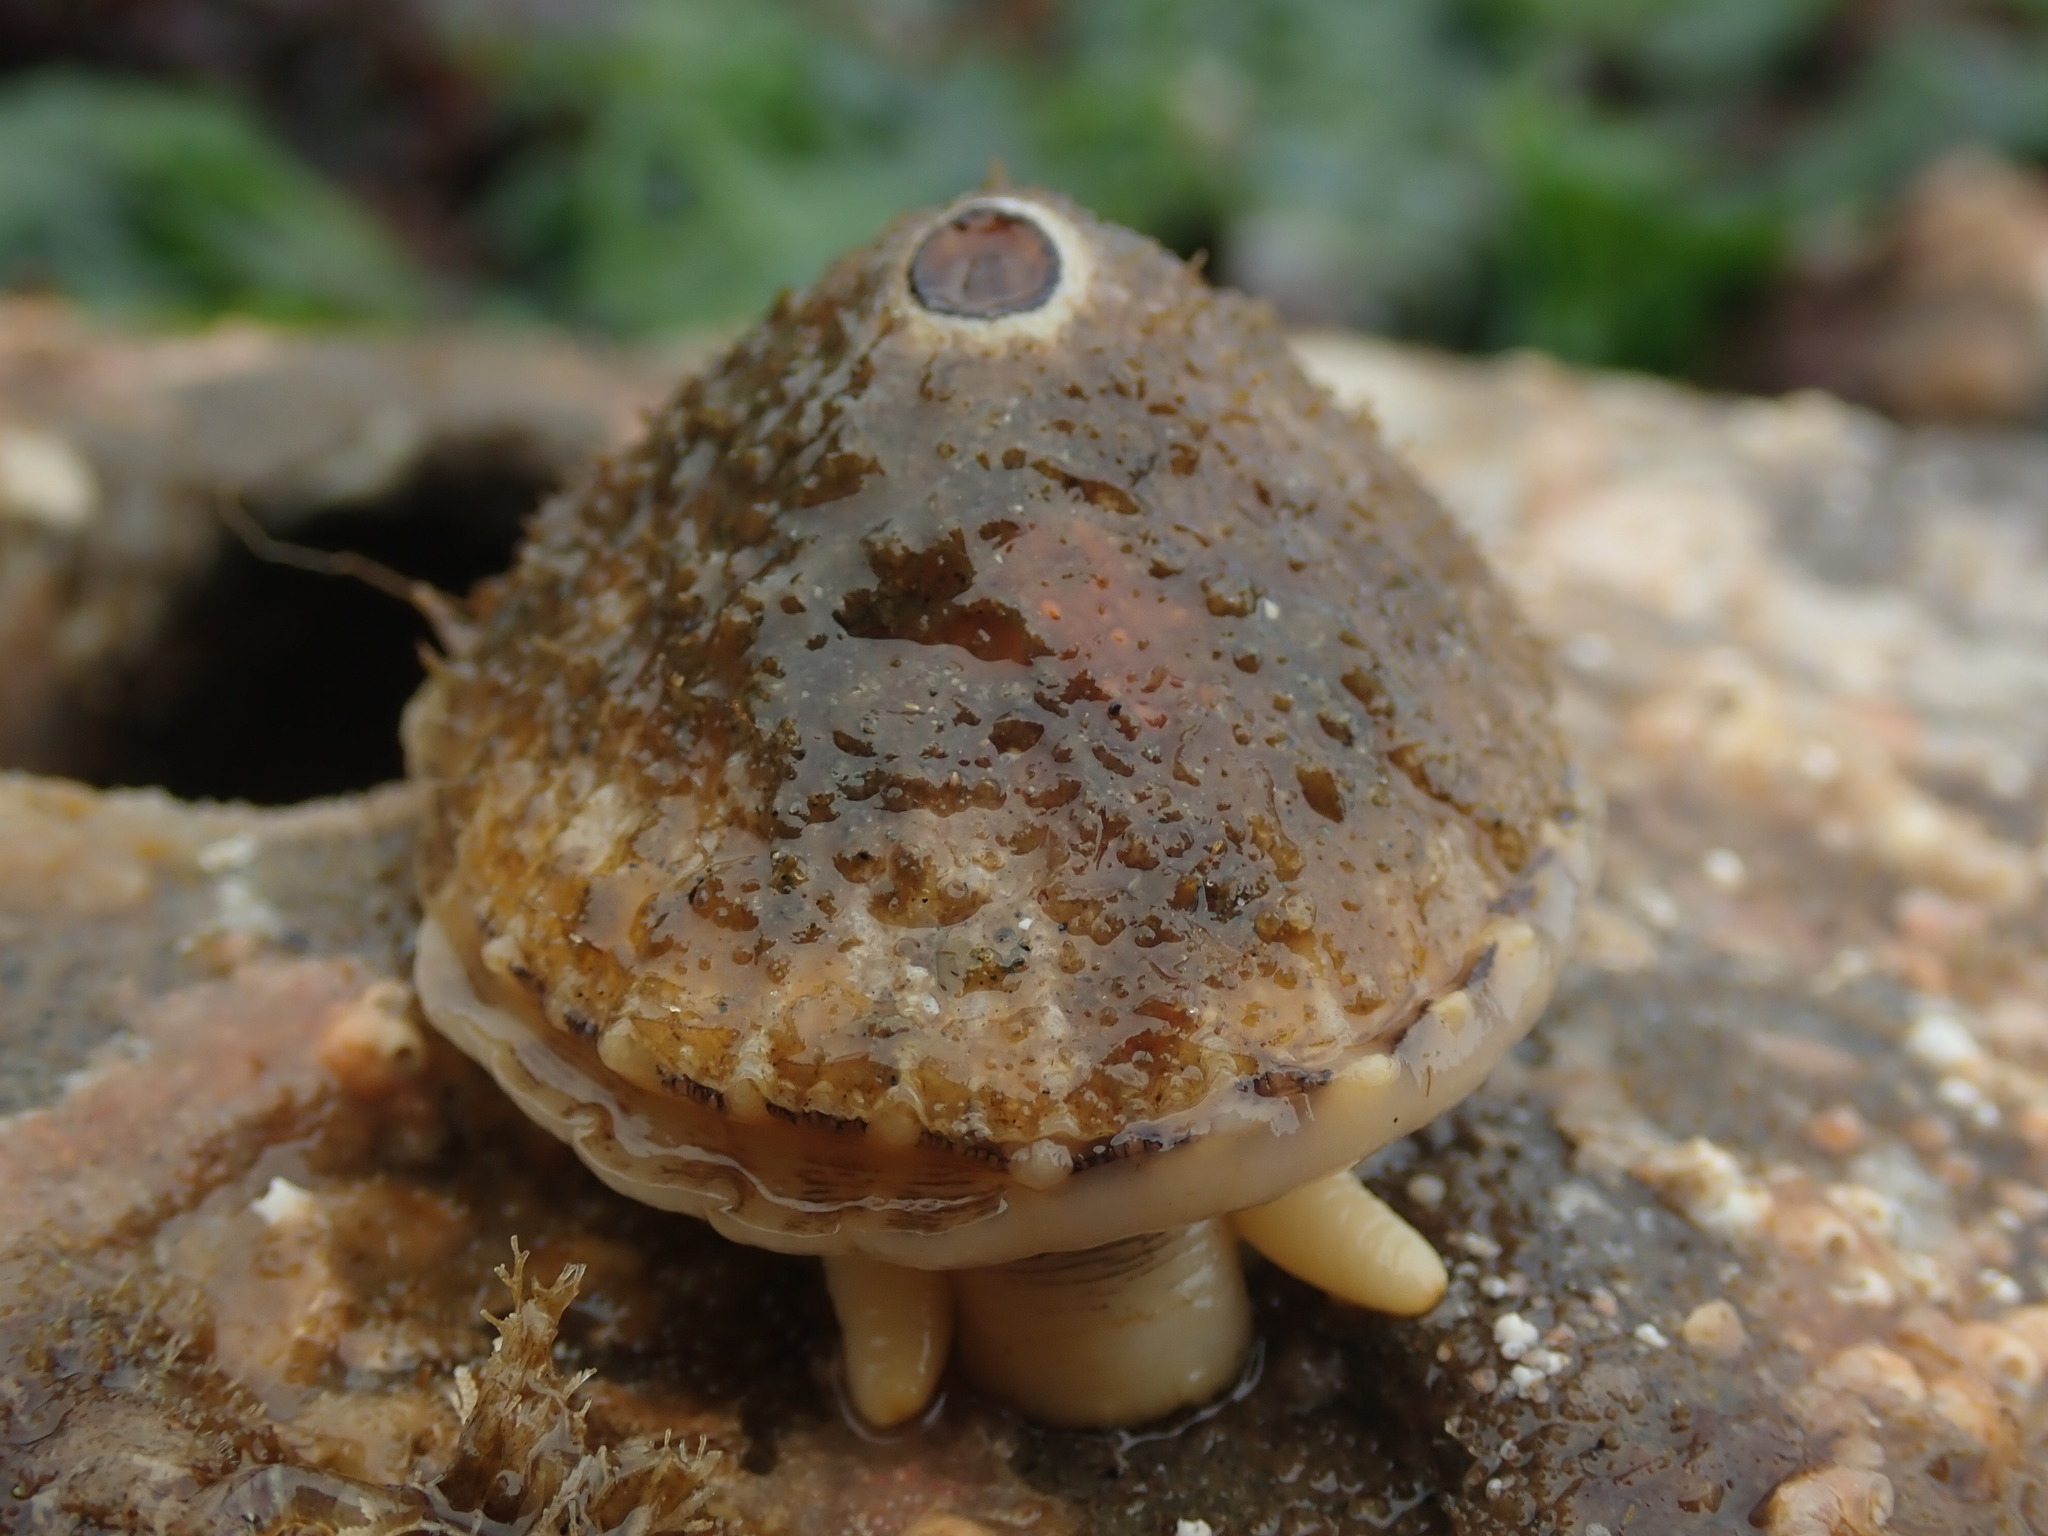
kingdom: Animalia
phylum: Mollusca
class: Gastropoda
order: Lepetellida
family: Fissurellidae
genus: Diodora
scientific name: Diodora aspera
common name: Rough keyhole limpet
